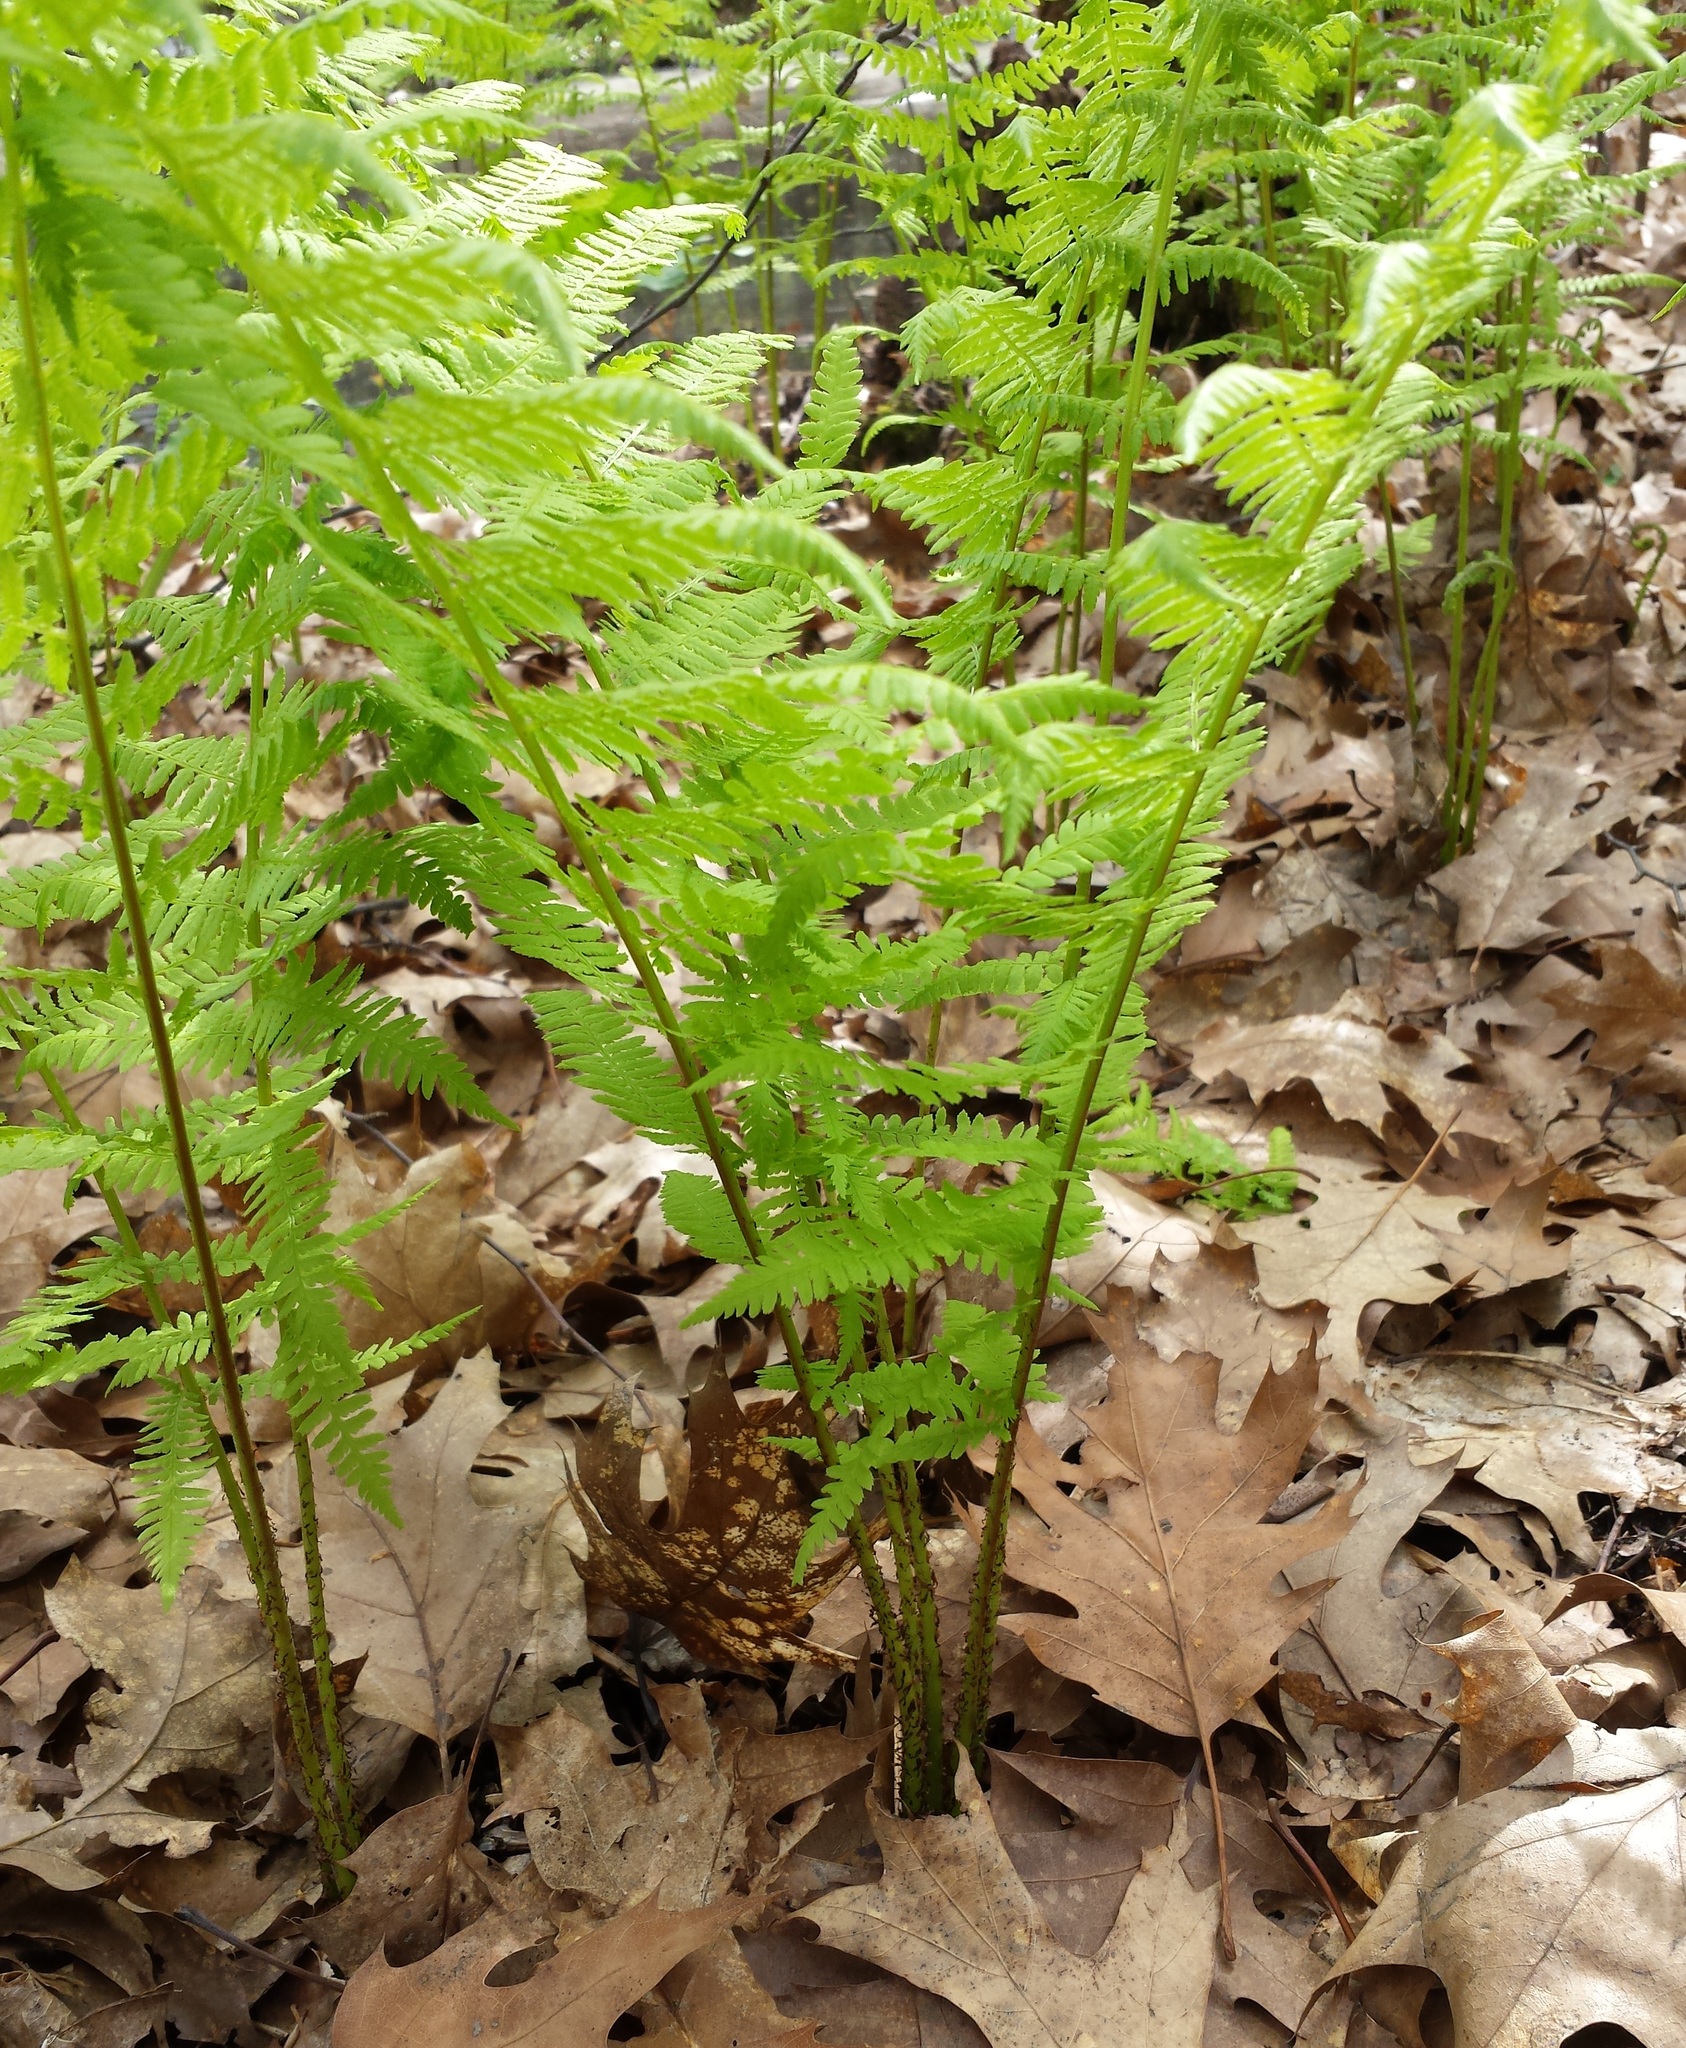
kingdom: Plantae
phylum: Tracheophyta
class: Polypodiopsida
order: Polypodiales
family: Athyriaceae
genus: Athyrium
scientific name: Athyrium angustum
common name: Northern lady fern
